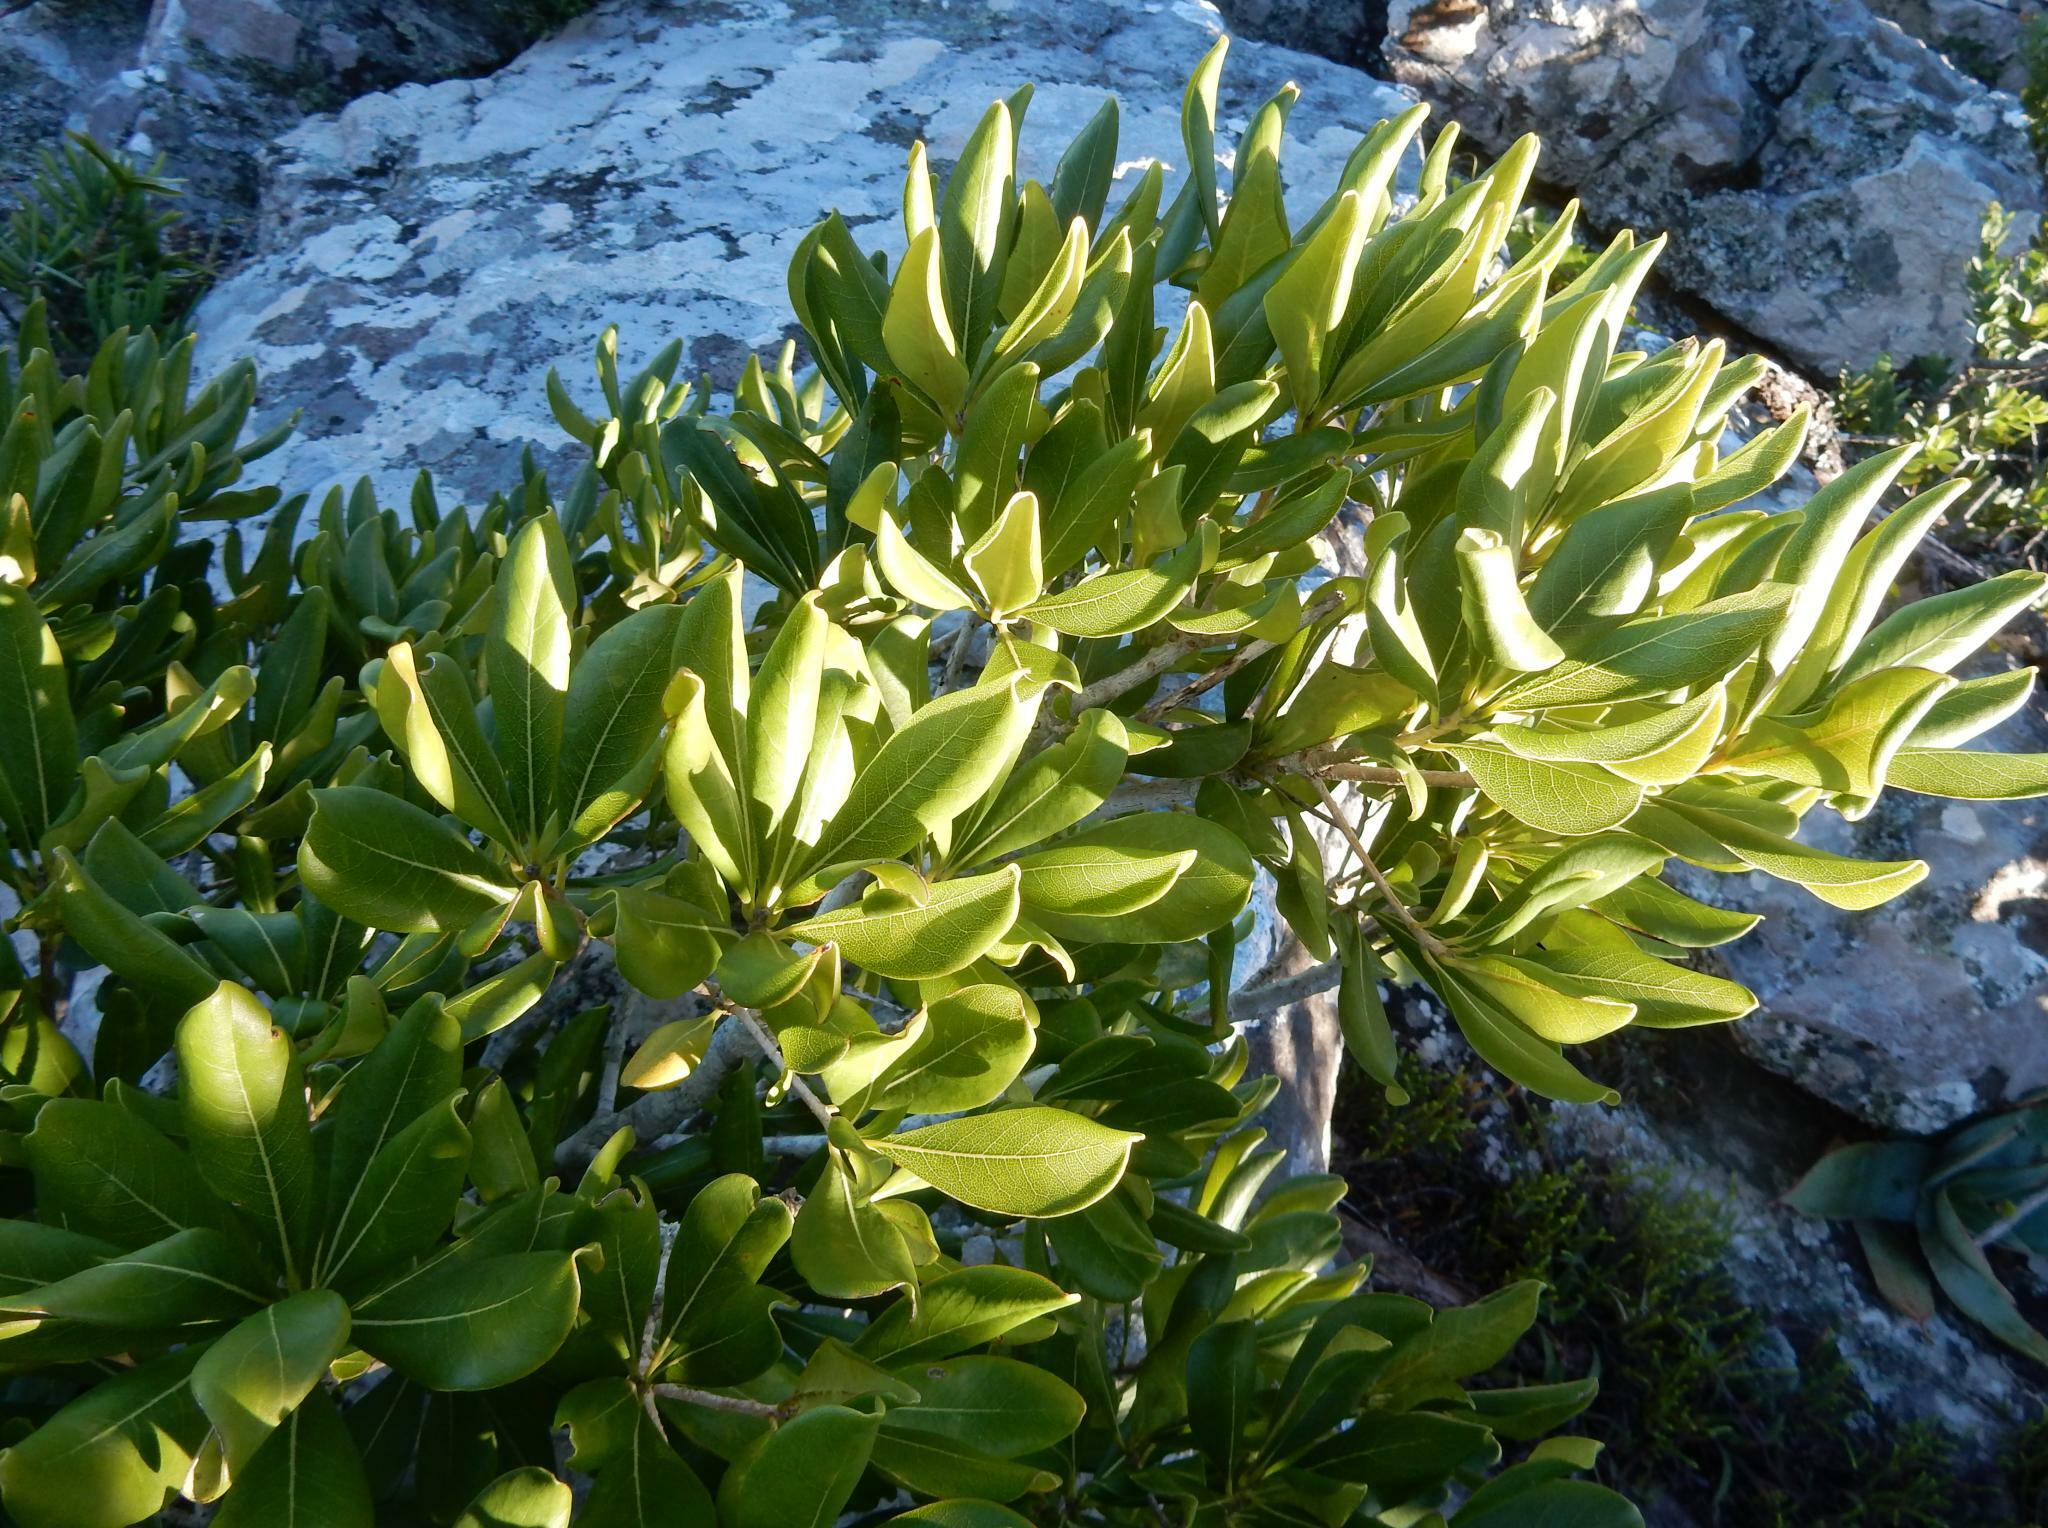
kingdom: Plantae
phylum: Tracheophyta
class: Magnoliopsida
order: Apiales
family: Pittosporaceae
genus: Pittosporum
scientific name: Pittosporum viridiflorum
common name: Cape cheesewood
